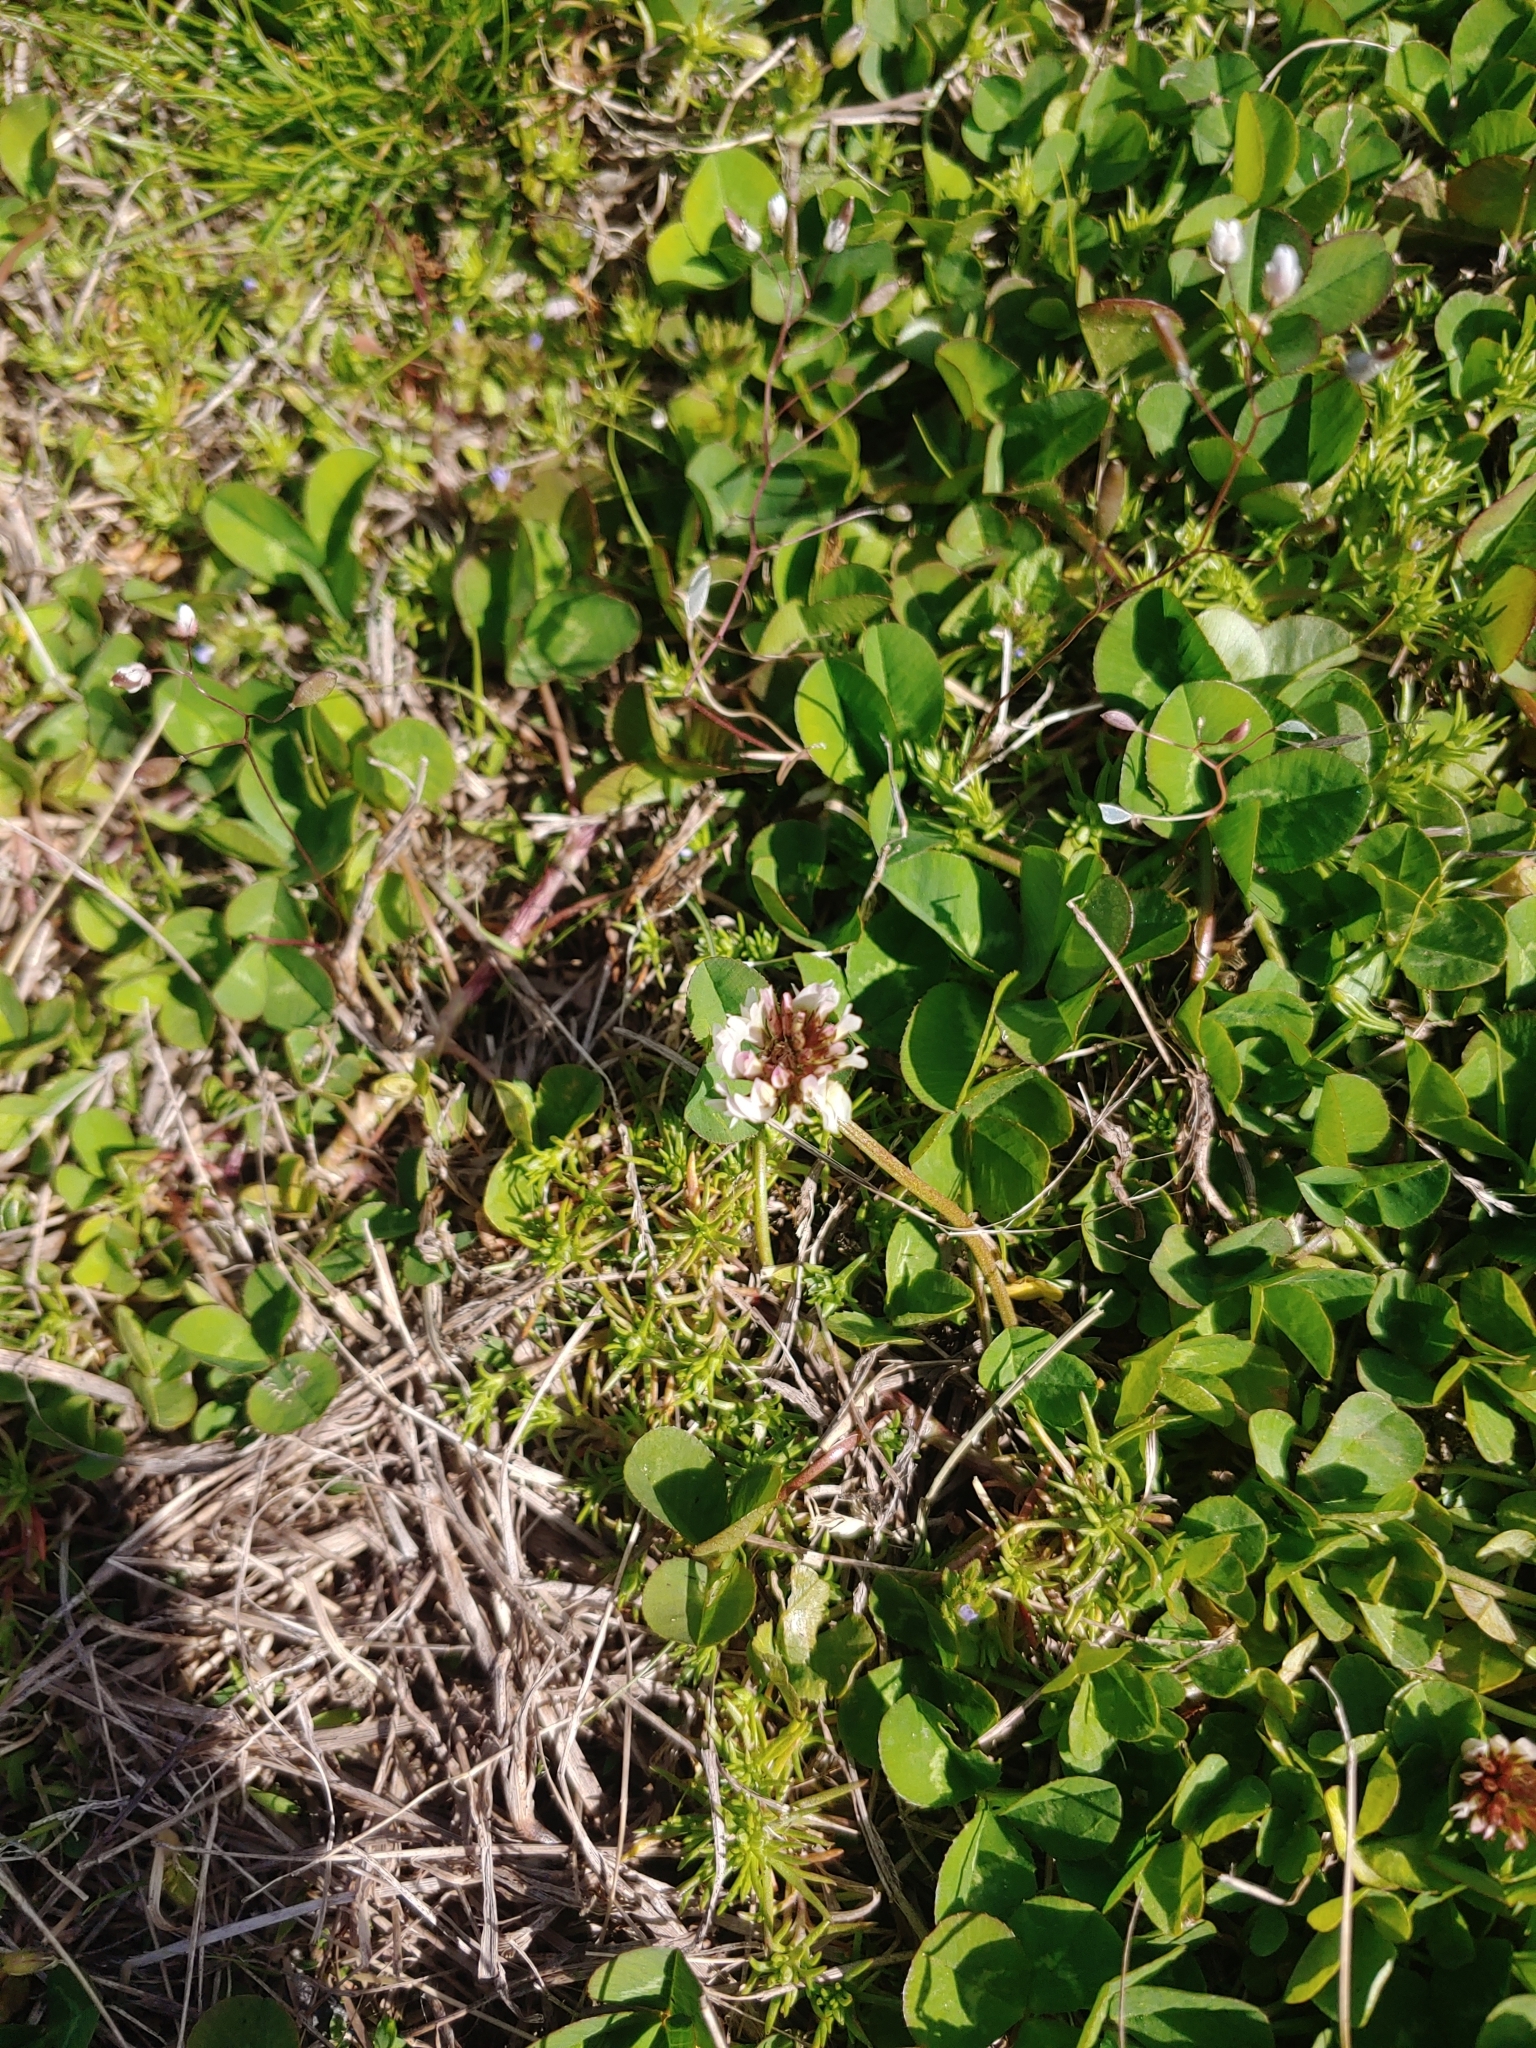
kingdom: Plantae
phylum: Tracheophyta
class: Magnoliopsida
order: Fabales
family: Fabaceae
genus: Trifolium
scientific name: Trifolium repens
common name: White clover
